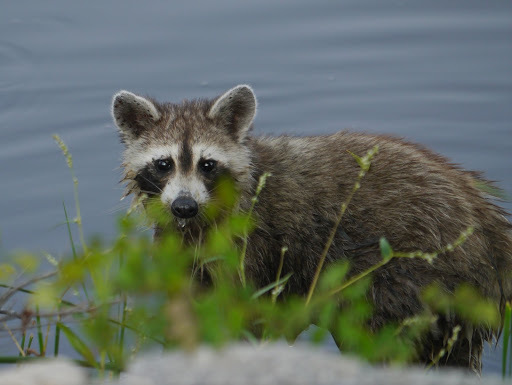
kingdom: Animalia
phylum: Chordata
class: Mammalia
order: Carnivora
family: Procyonidae
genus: Procyon
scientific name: Procyon lotor
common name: Raccoon
